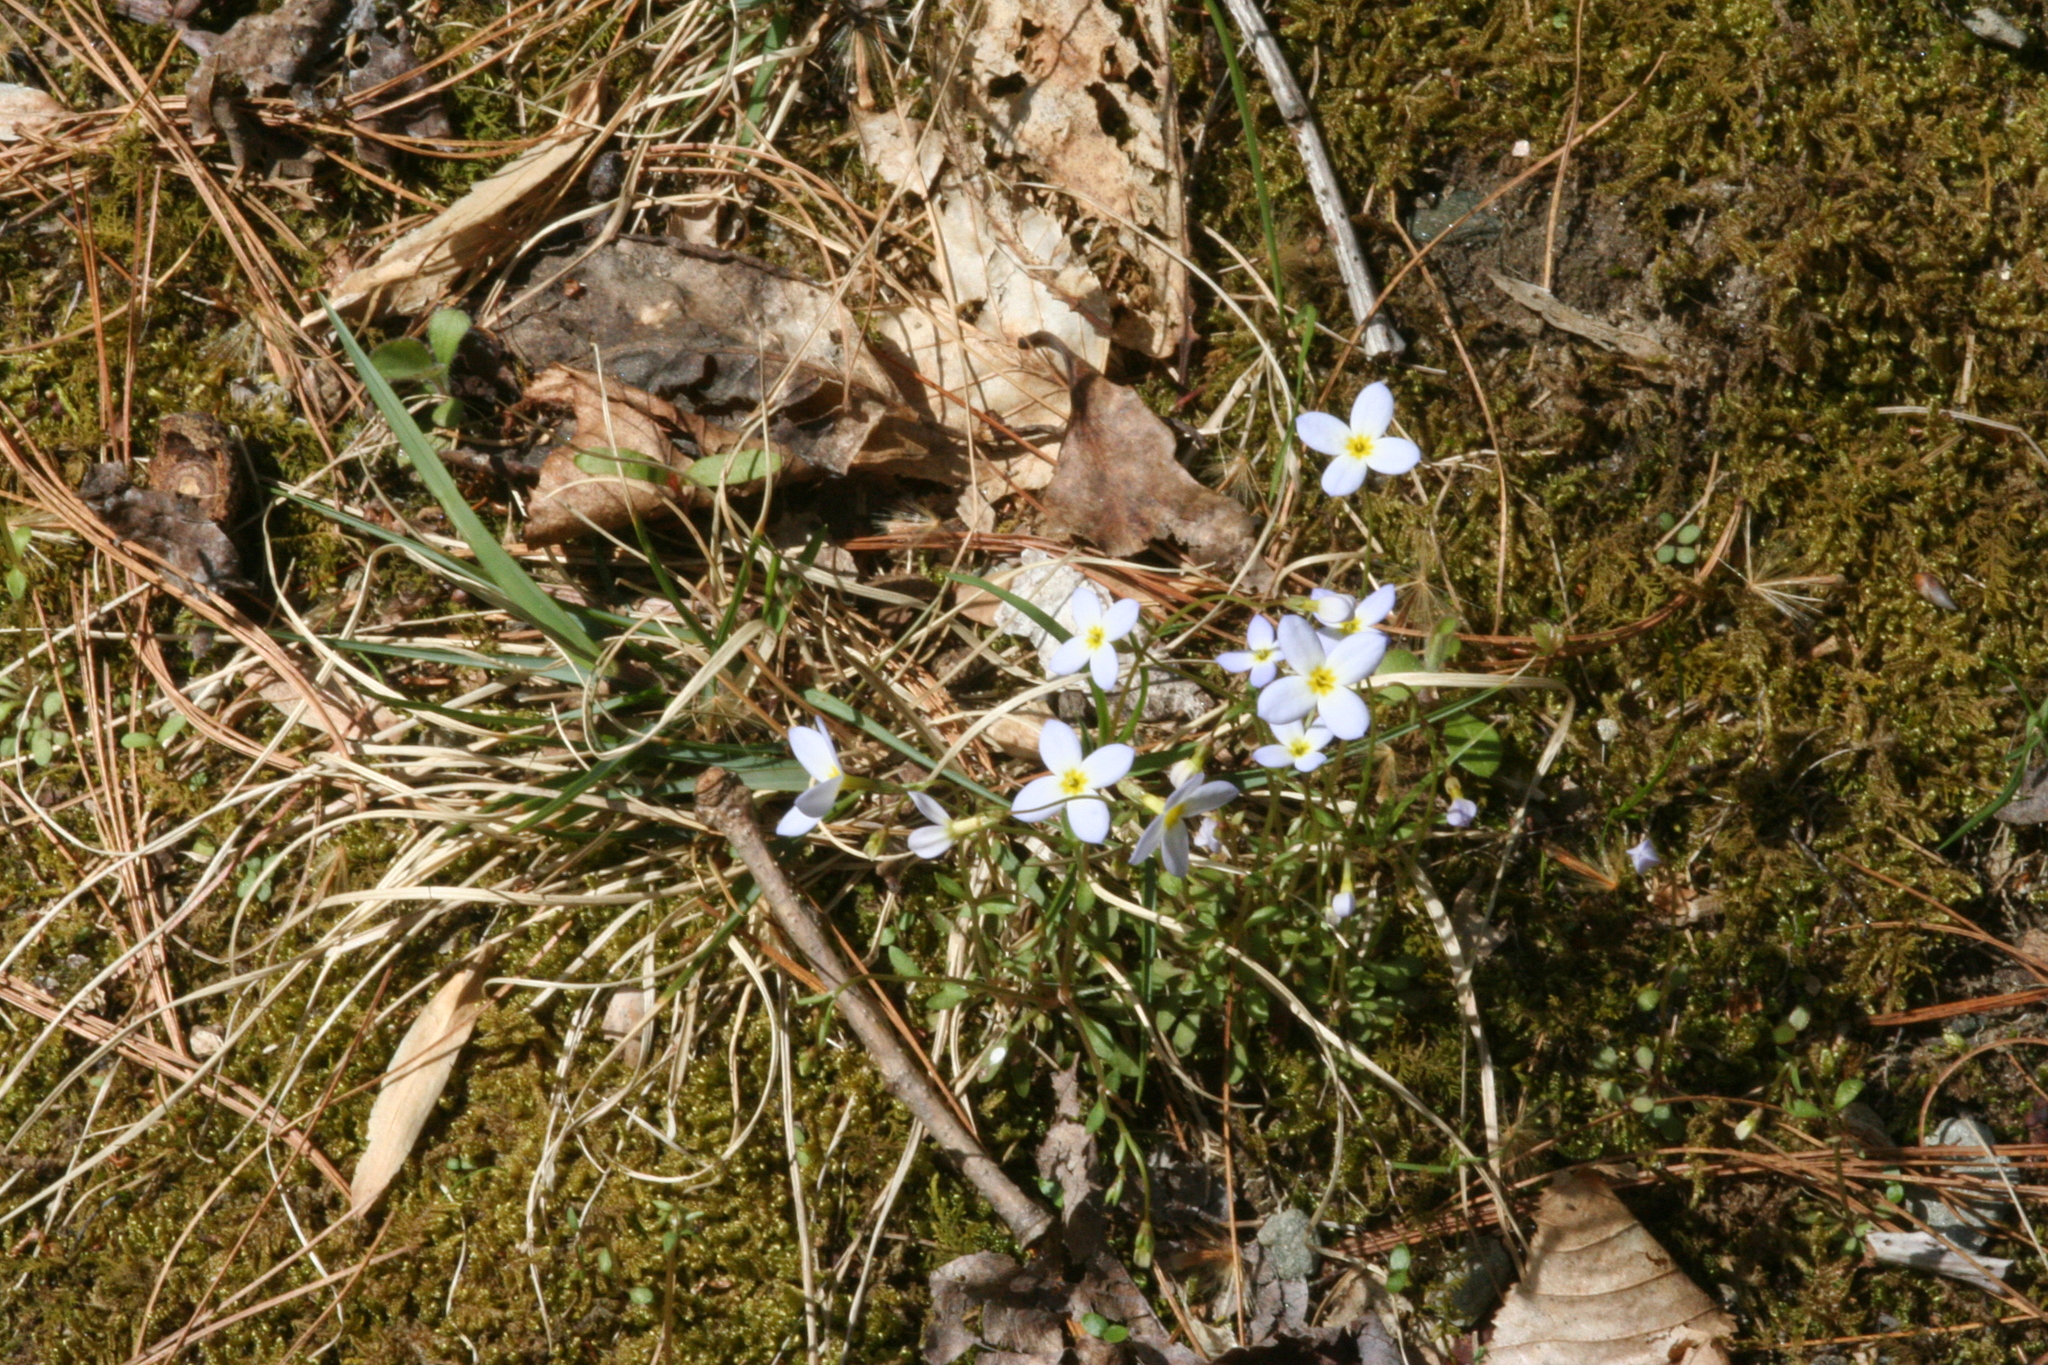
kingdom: Plantae
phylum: Tracheophyta
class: Magnoliopsida
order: Gentianales
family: Rubiaceae
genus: Houstonia
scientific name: Houstonia caerulea
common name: Bluets
